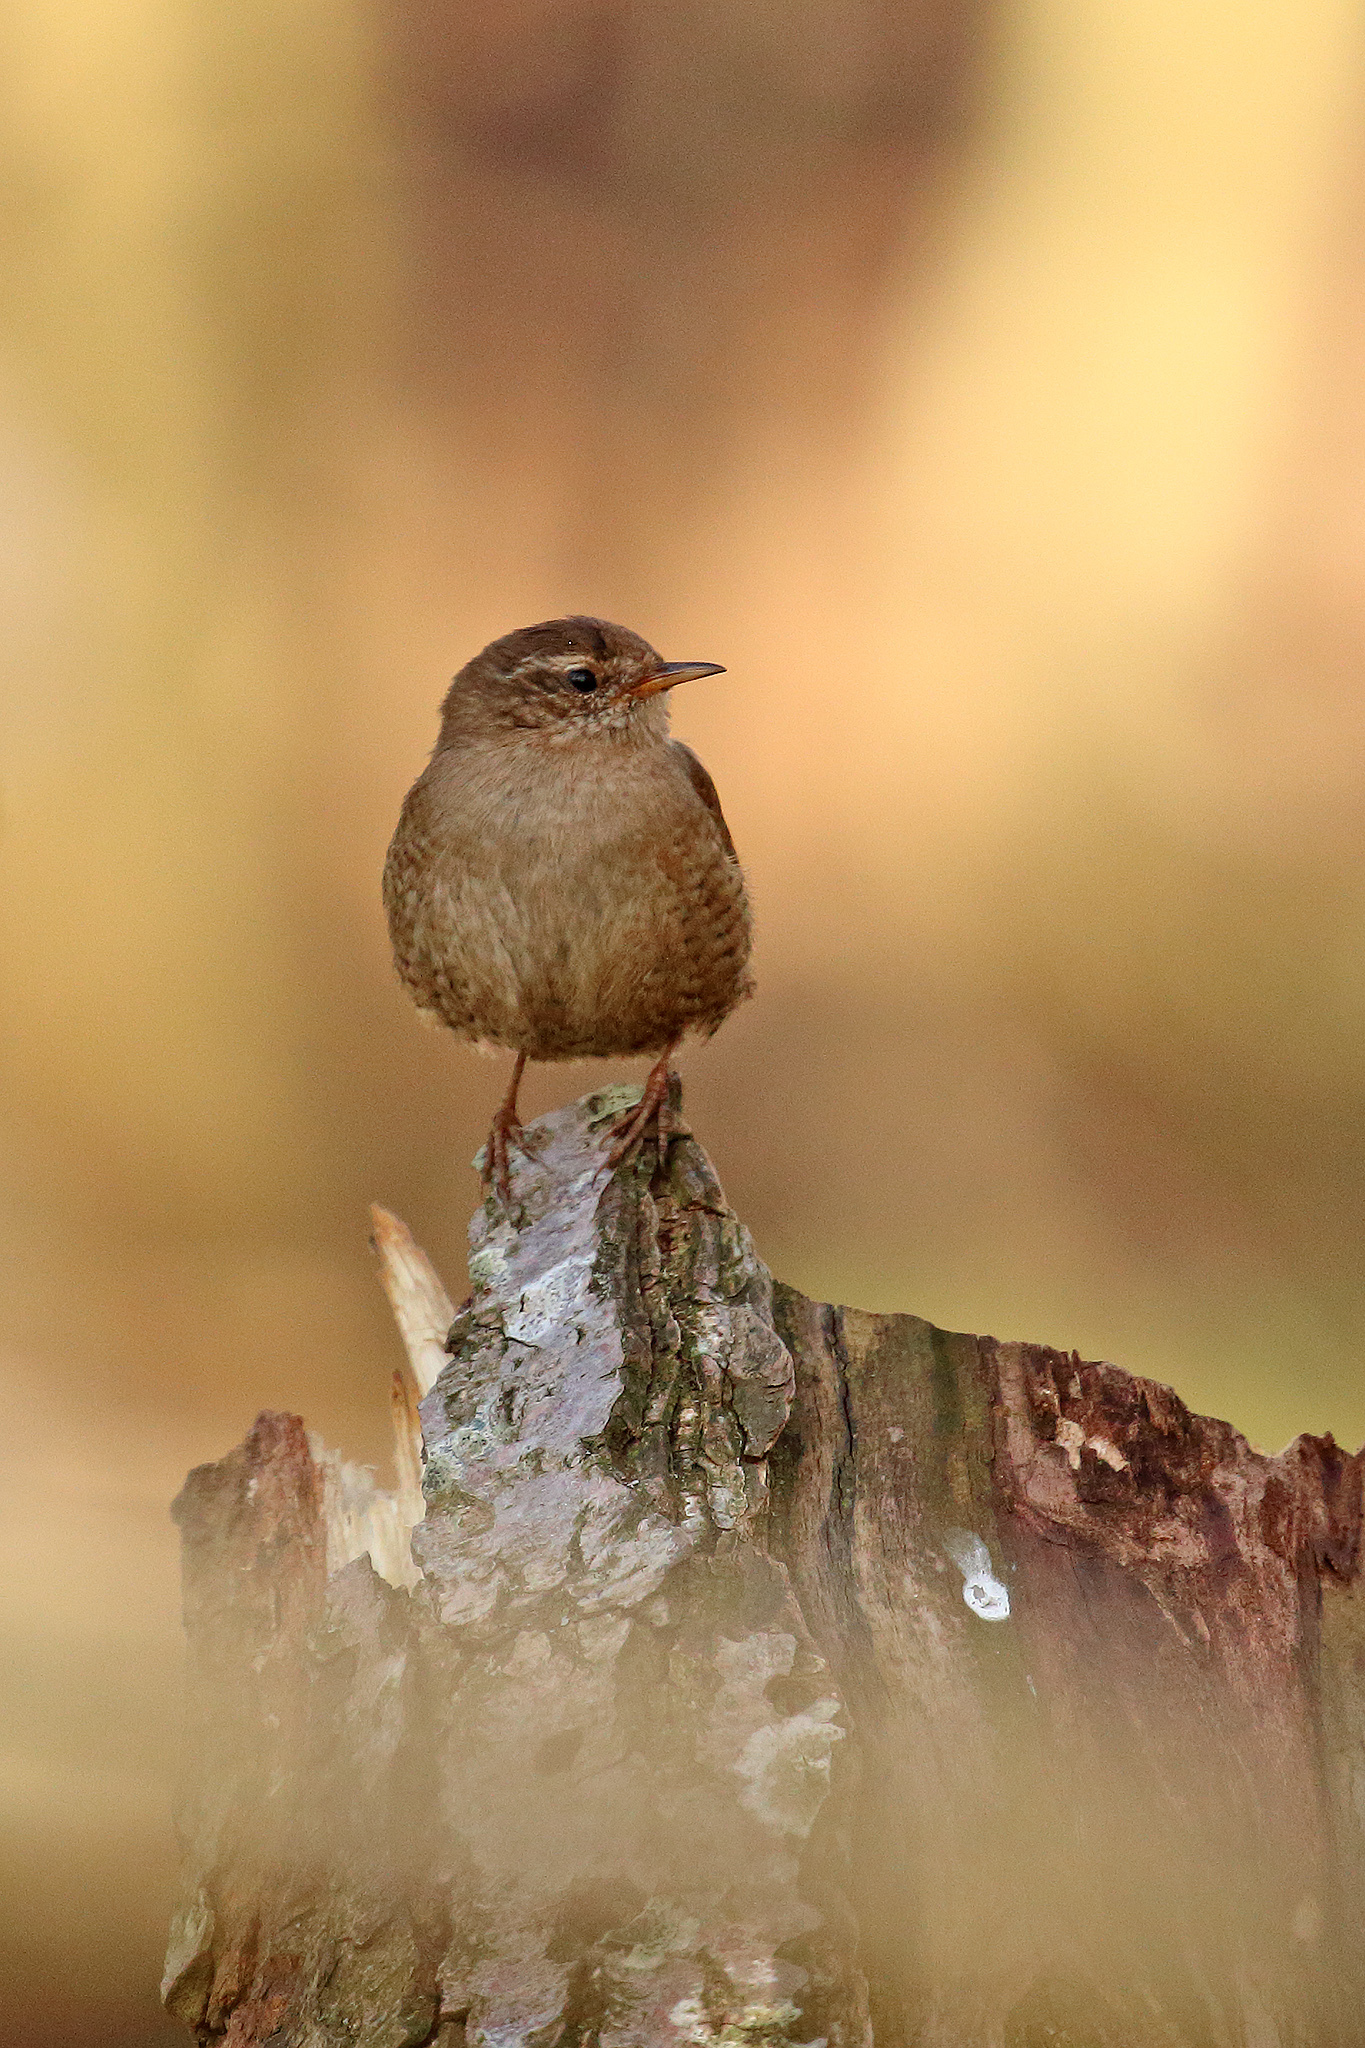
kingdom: Animalia
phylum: Chordata
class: Aves
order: Passeriformes
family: Troglodytidae
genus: Troglodytes
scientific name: Troglodytes troglodytes
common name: Eurasian wren
